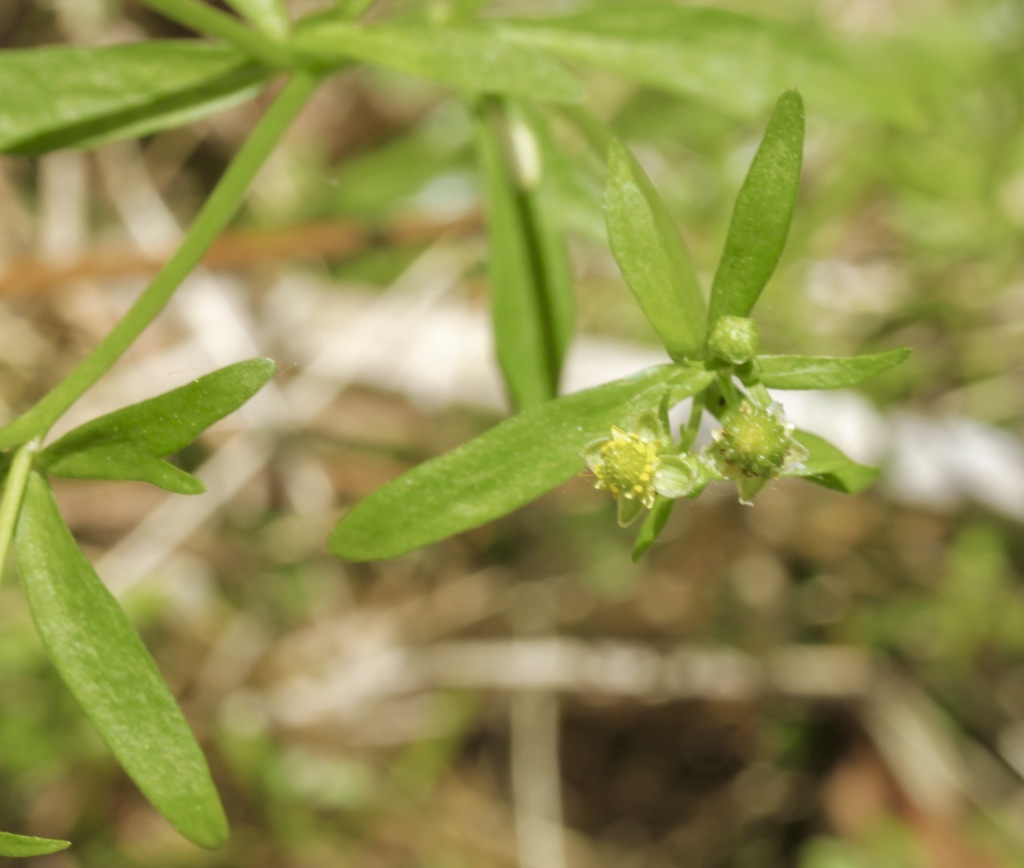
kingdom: Plantae
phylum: Tracheophyta
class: Magnoliopsida
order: Ranunculales
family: Ranunculaceae
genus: Ranunculus
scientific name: Ranunculus abortivus
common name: Early wood buttercup
